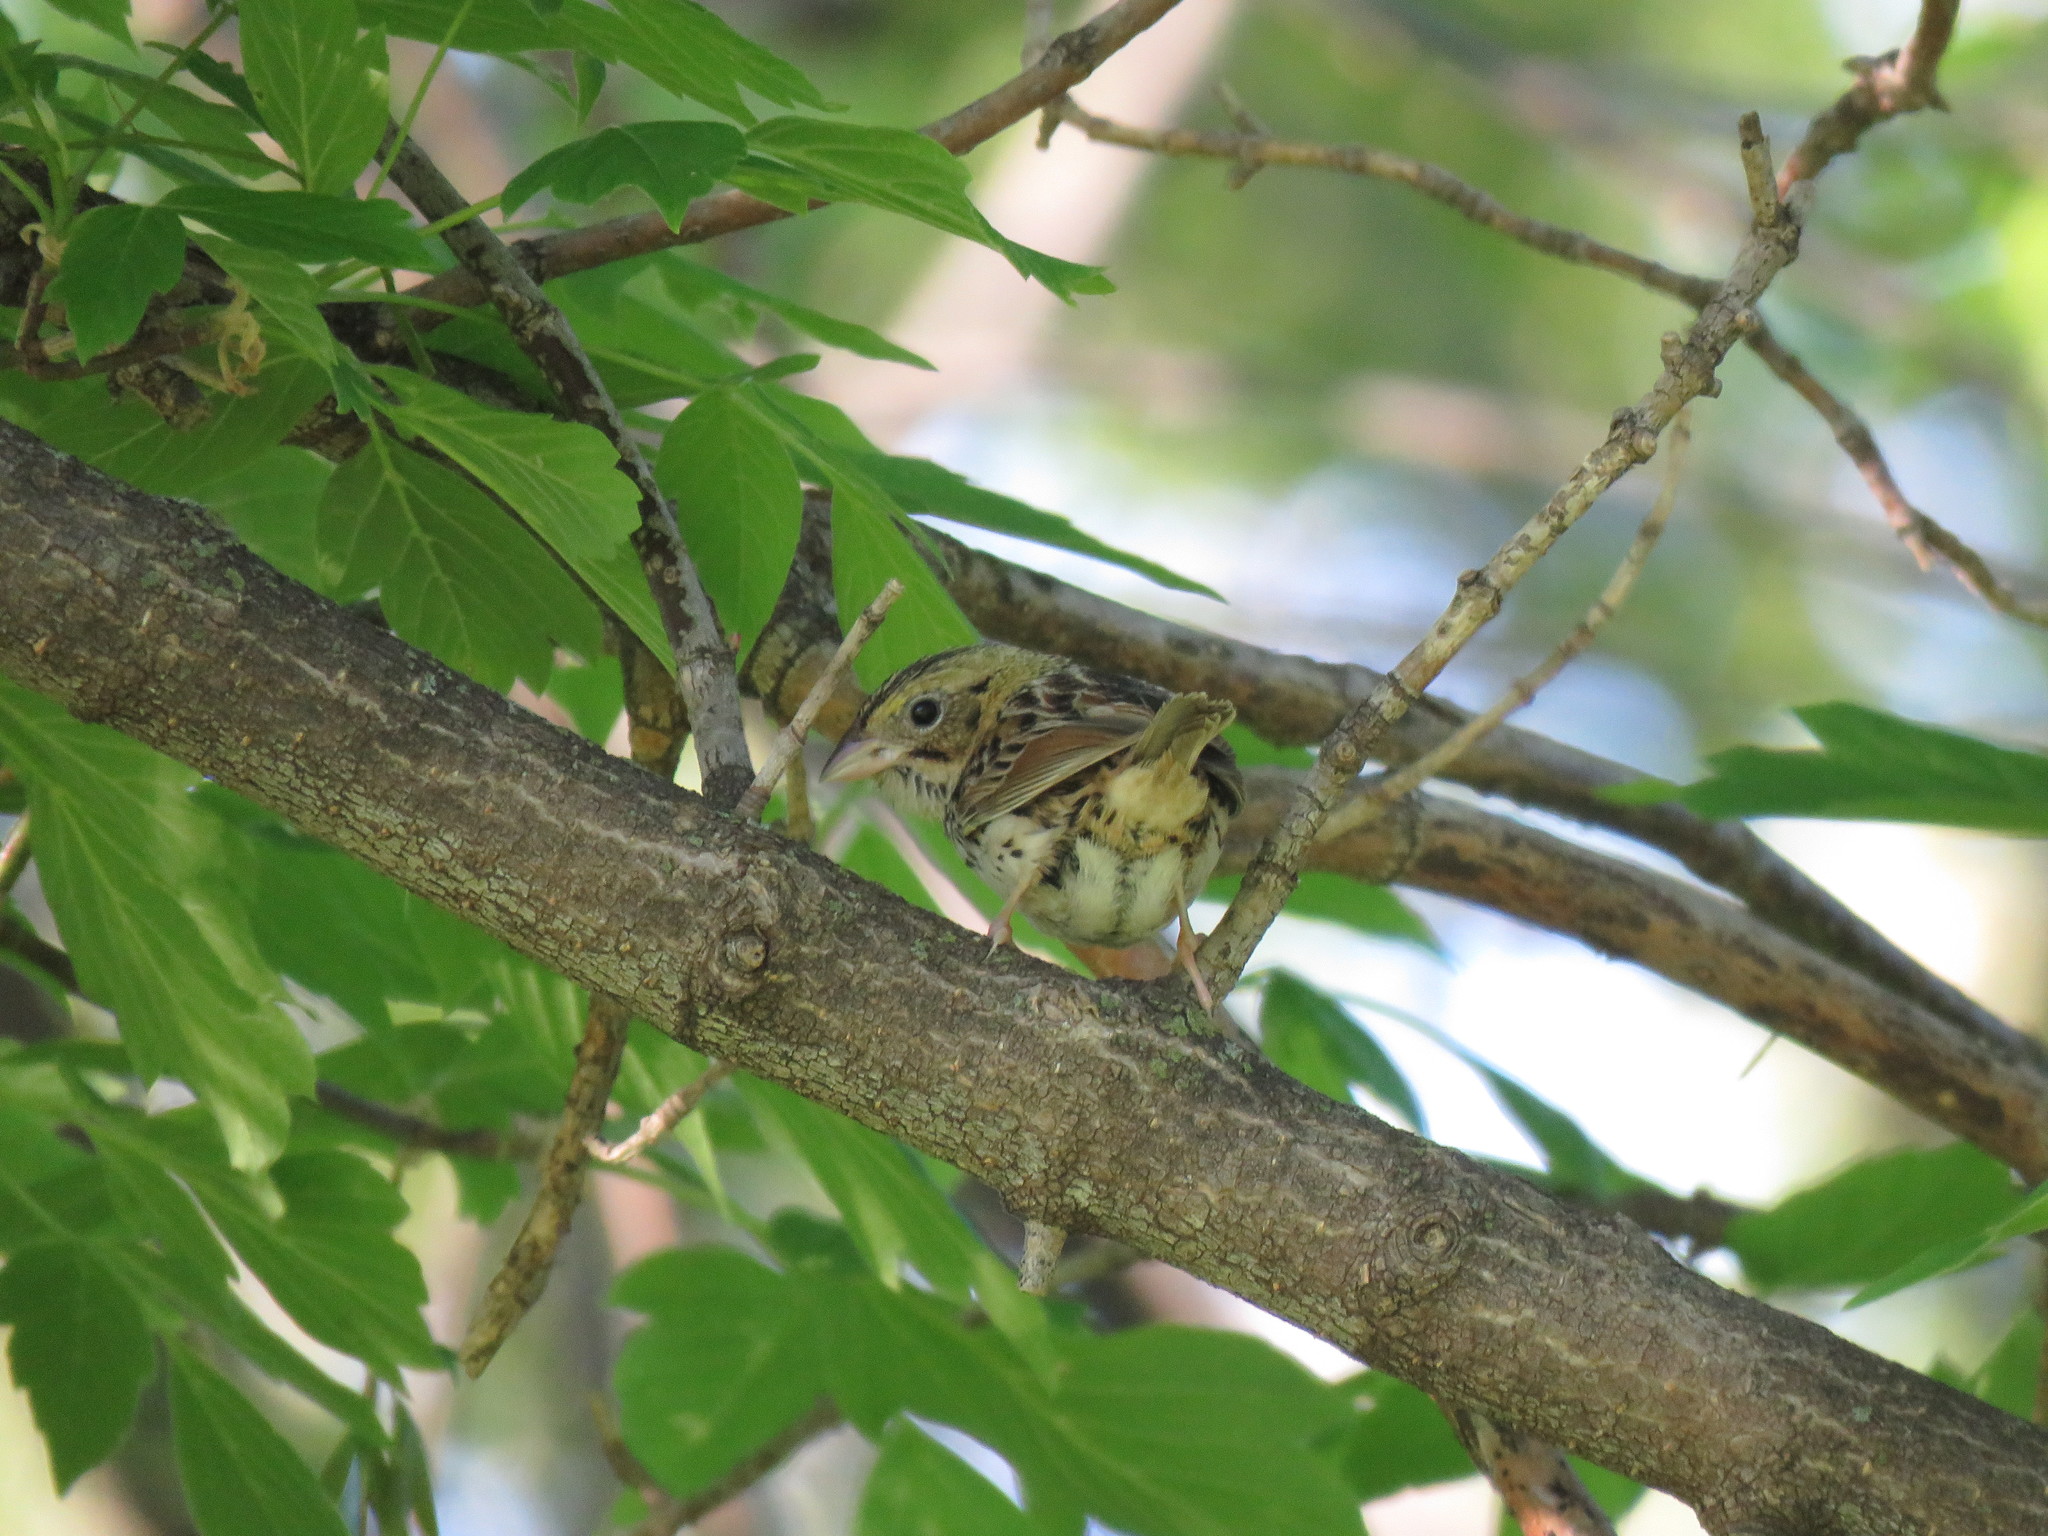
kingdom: Animalia
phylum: Chordata
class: Aves
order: Passeriformes
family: Passerellidae
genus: Centronyx
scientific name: Centronyx henslowii
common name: Henslow's sparrow
